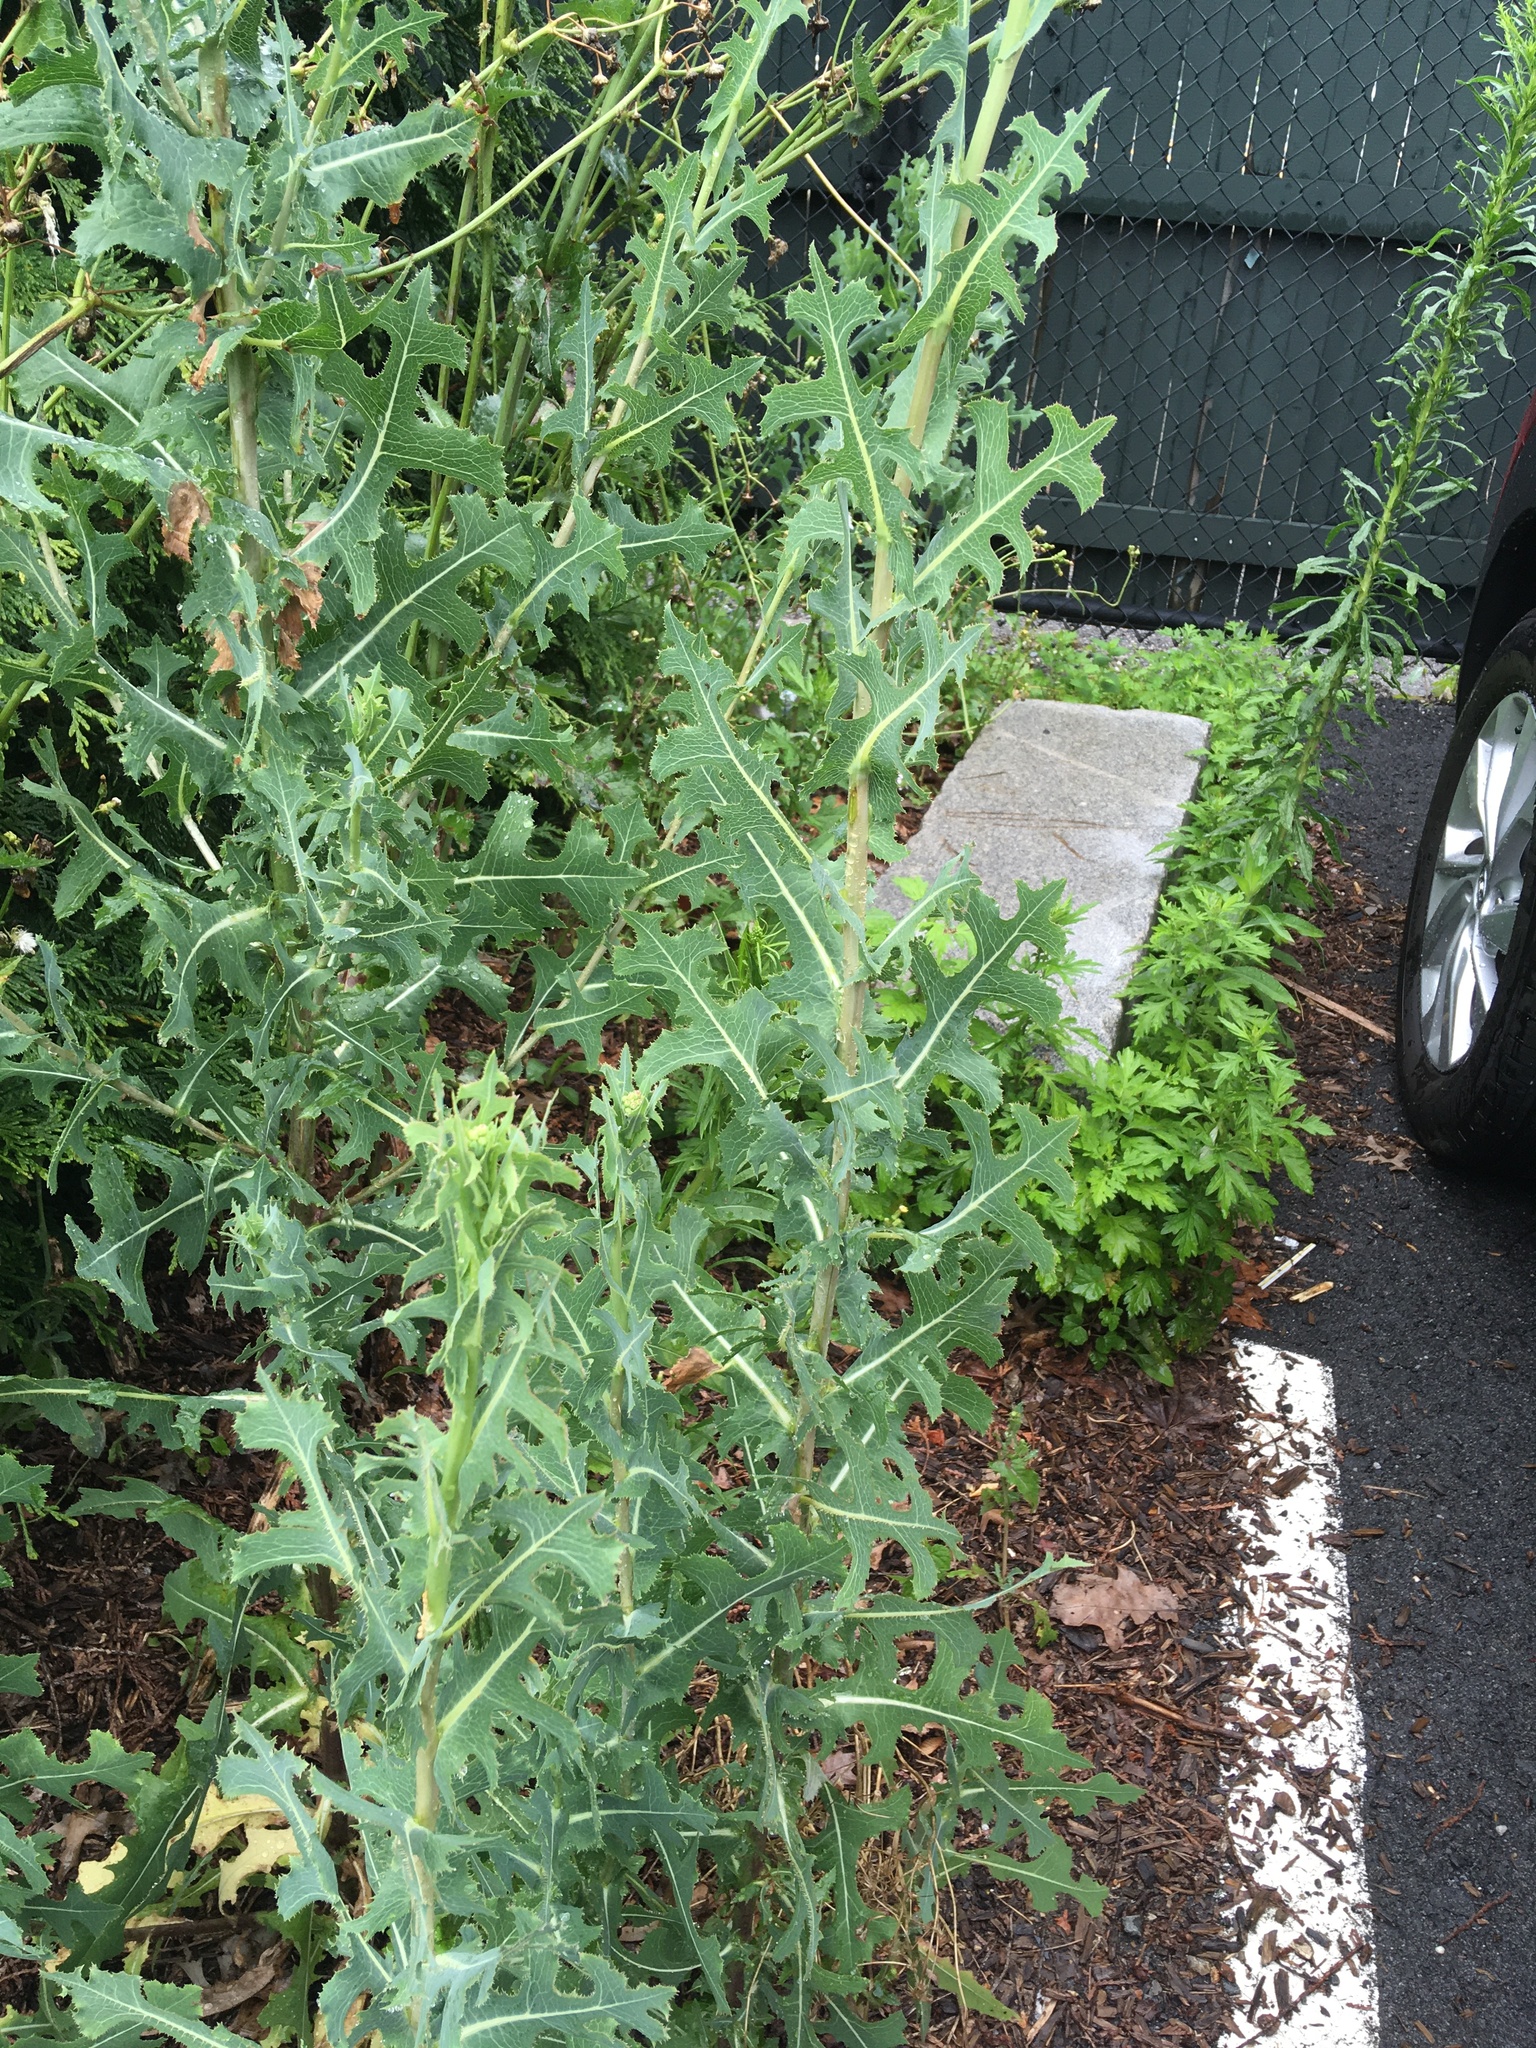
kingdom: Plantae
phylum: Tracheophyta
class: Magnoliopsida
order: Asterales
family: Asteraceae
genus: Lactuca
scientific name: Lactuca serriola
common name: Prickly lettuce
